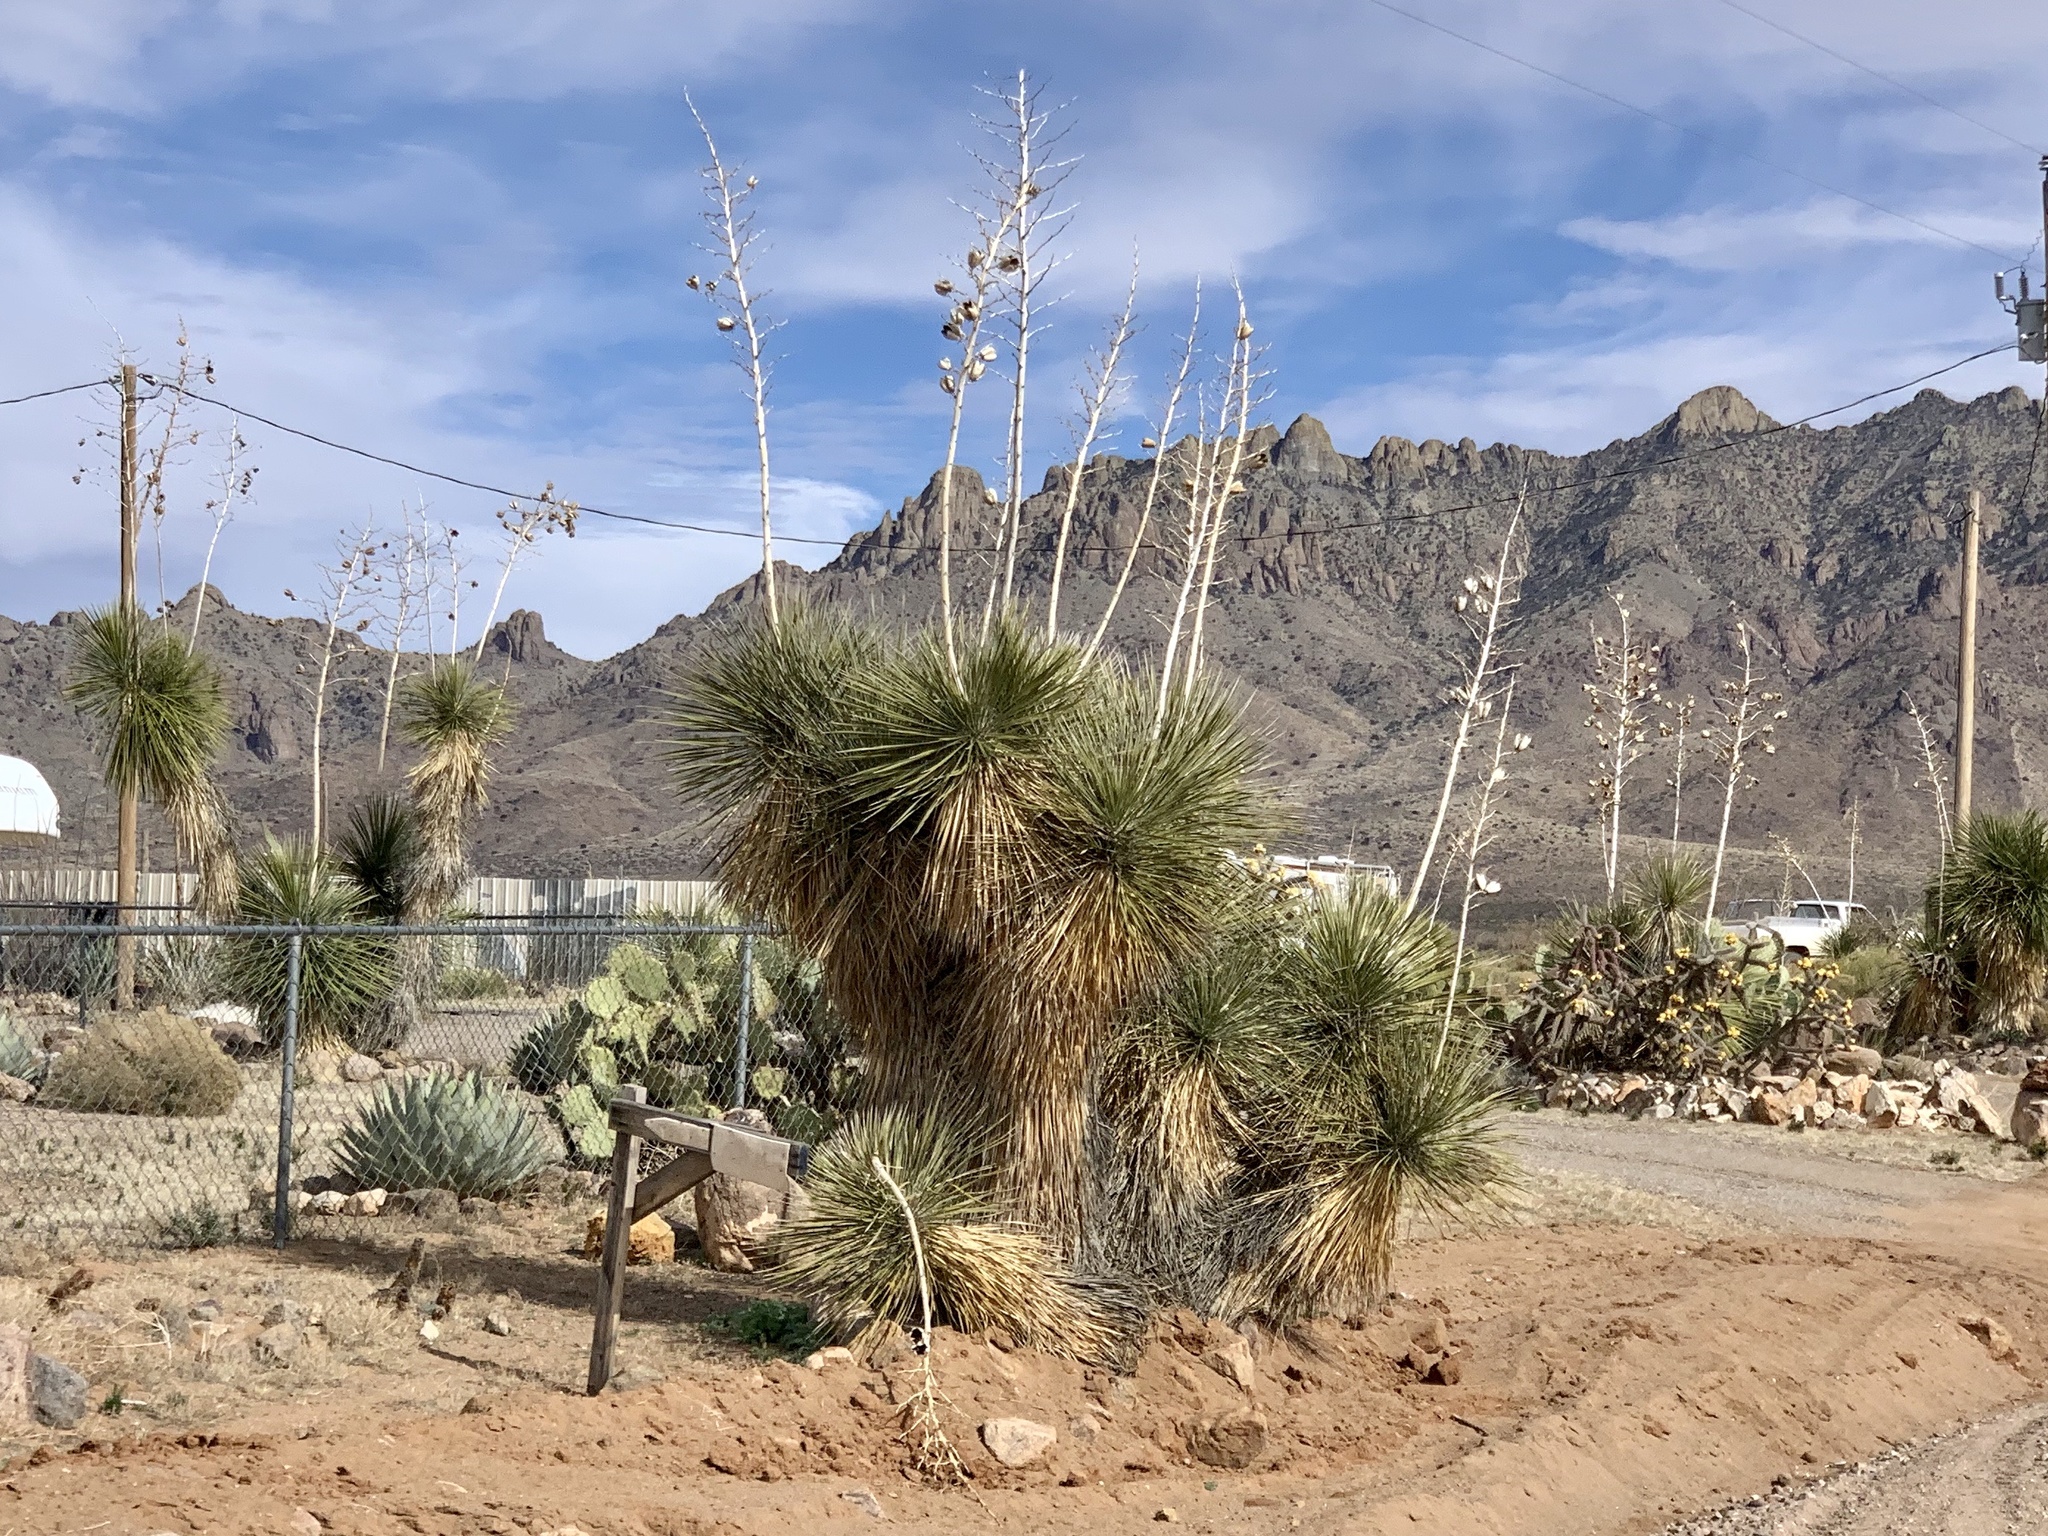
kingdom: Plantae
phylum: Tracheophyta
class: Liliopsida
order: Asparagales
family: Asparagaceae
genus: Yucca
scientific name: Yucca elata
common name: Palmella
